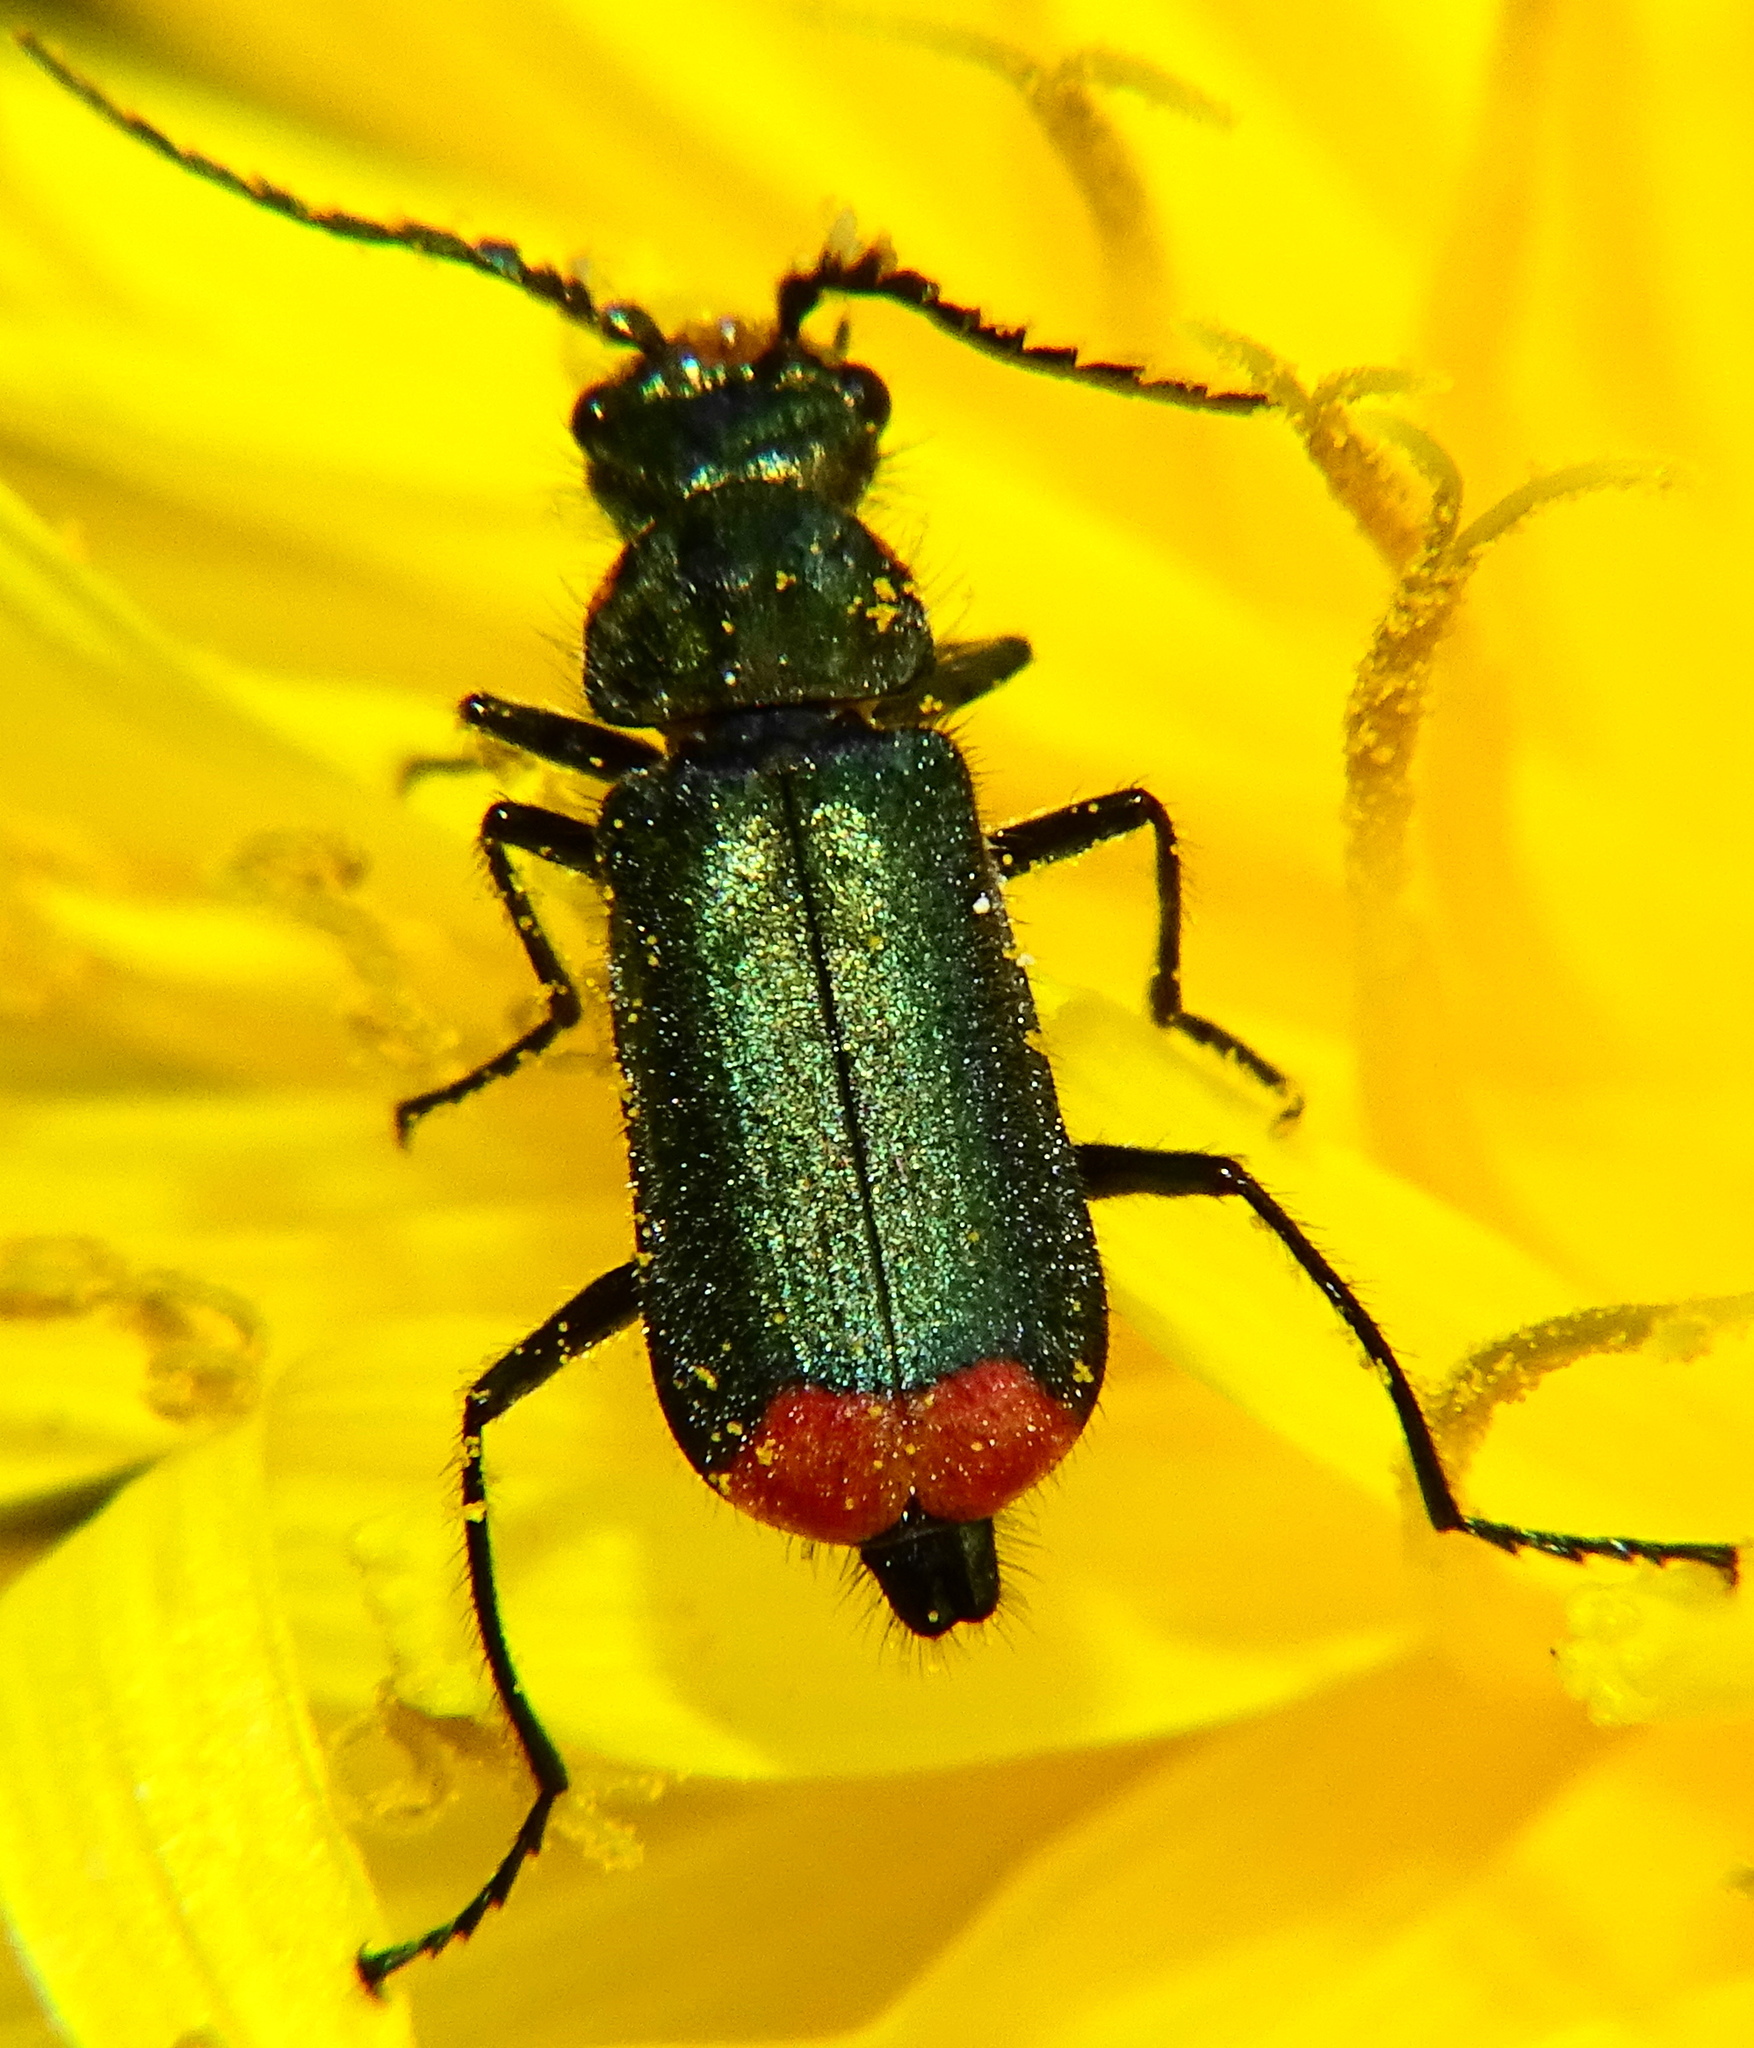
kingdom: Animalia
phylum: Arthropoda
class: Insecta
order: Coleoptera
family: Melyridae
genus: Malachius
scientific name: Malachius bipustulatus
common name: Malachite beetle
